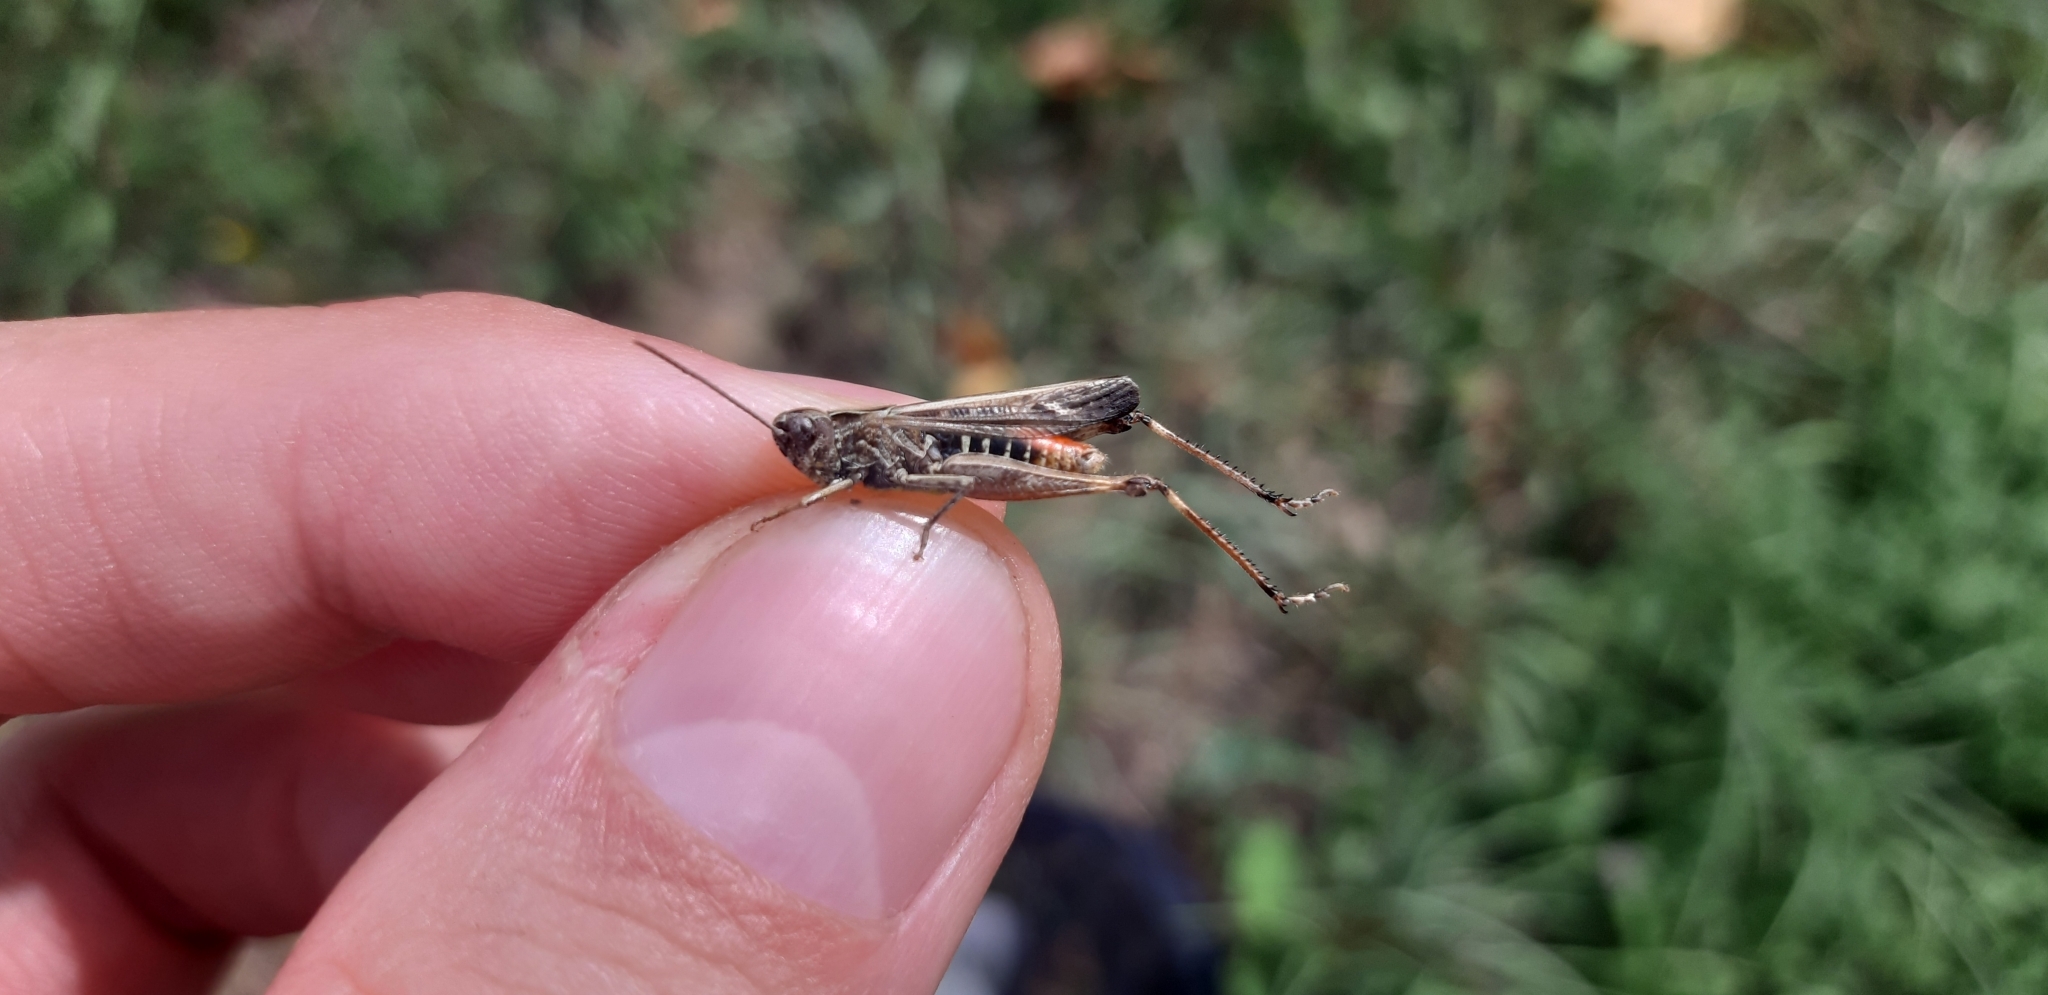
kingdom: Animalia
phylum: Arthropoda
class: Insecta
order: Orthoptera
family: Acrididae
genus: Omocestus
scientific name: Omocestus rufipes
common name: Woodland grasshopper
